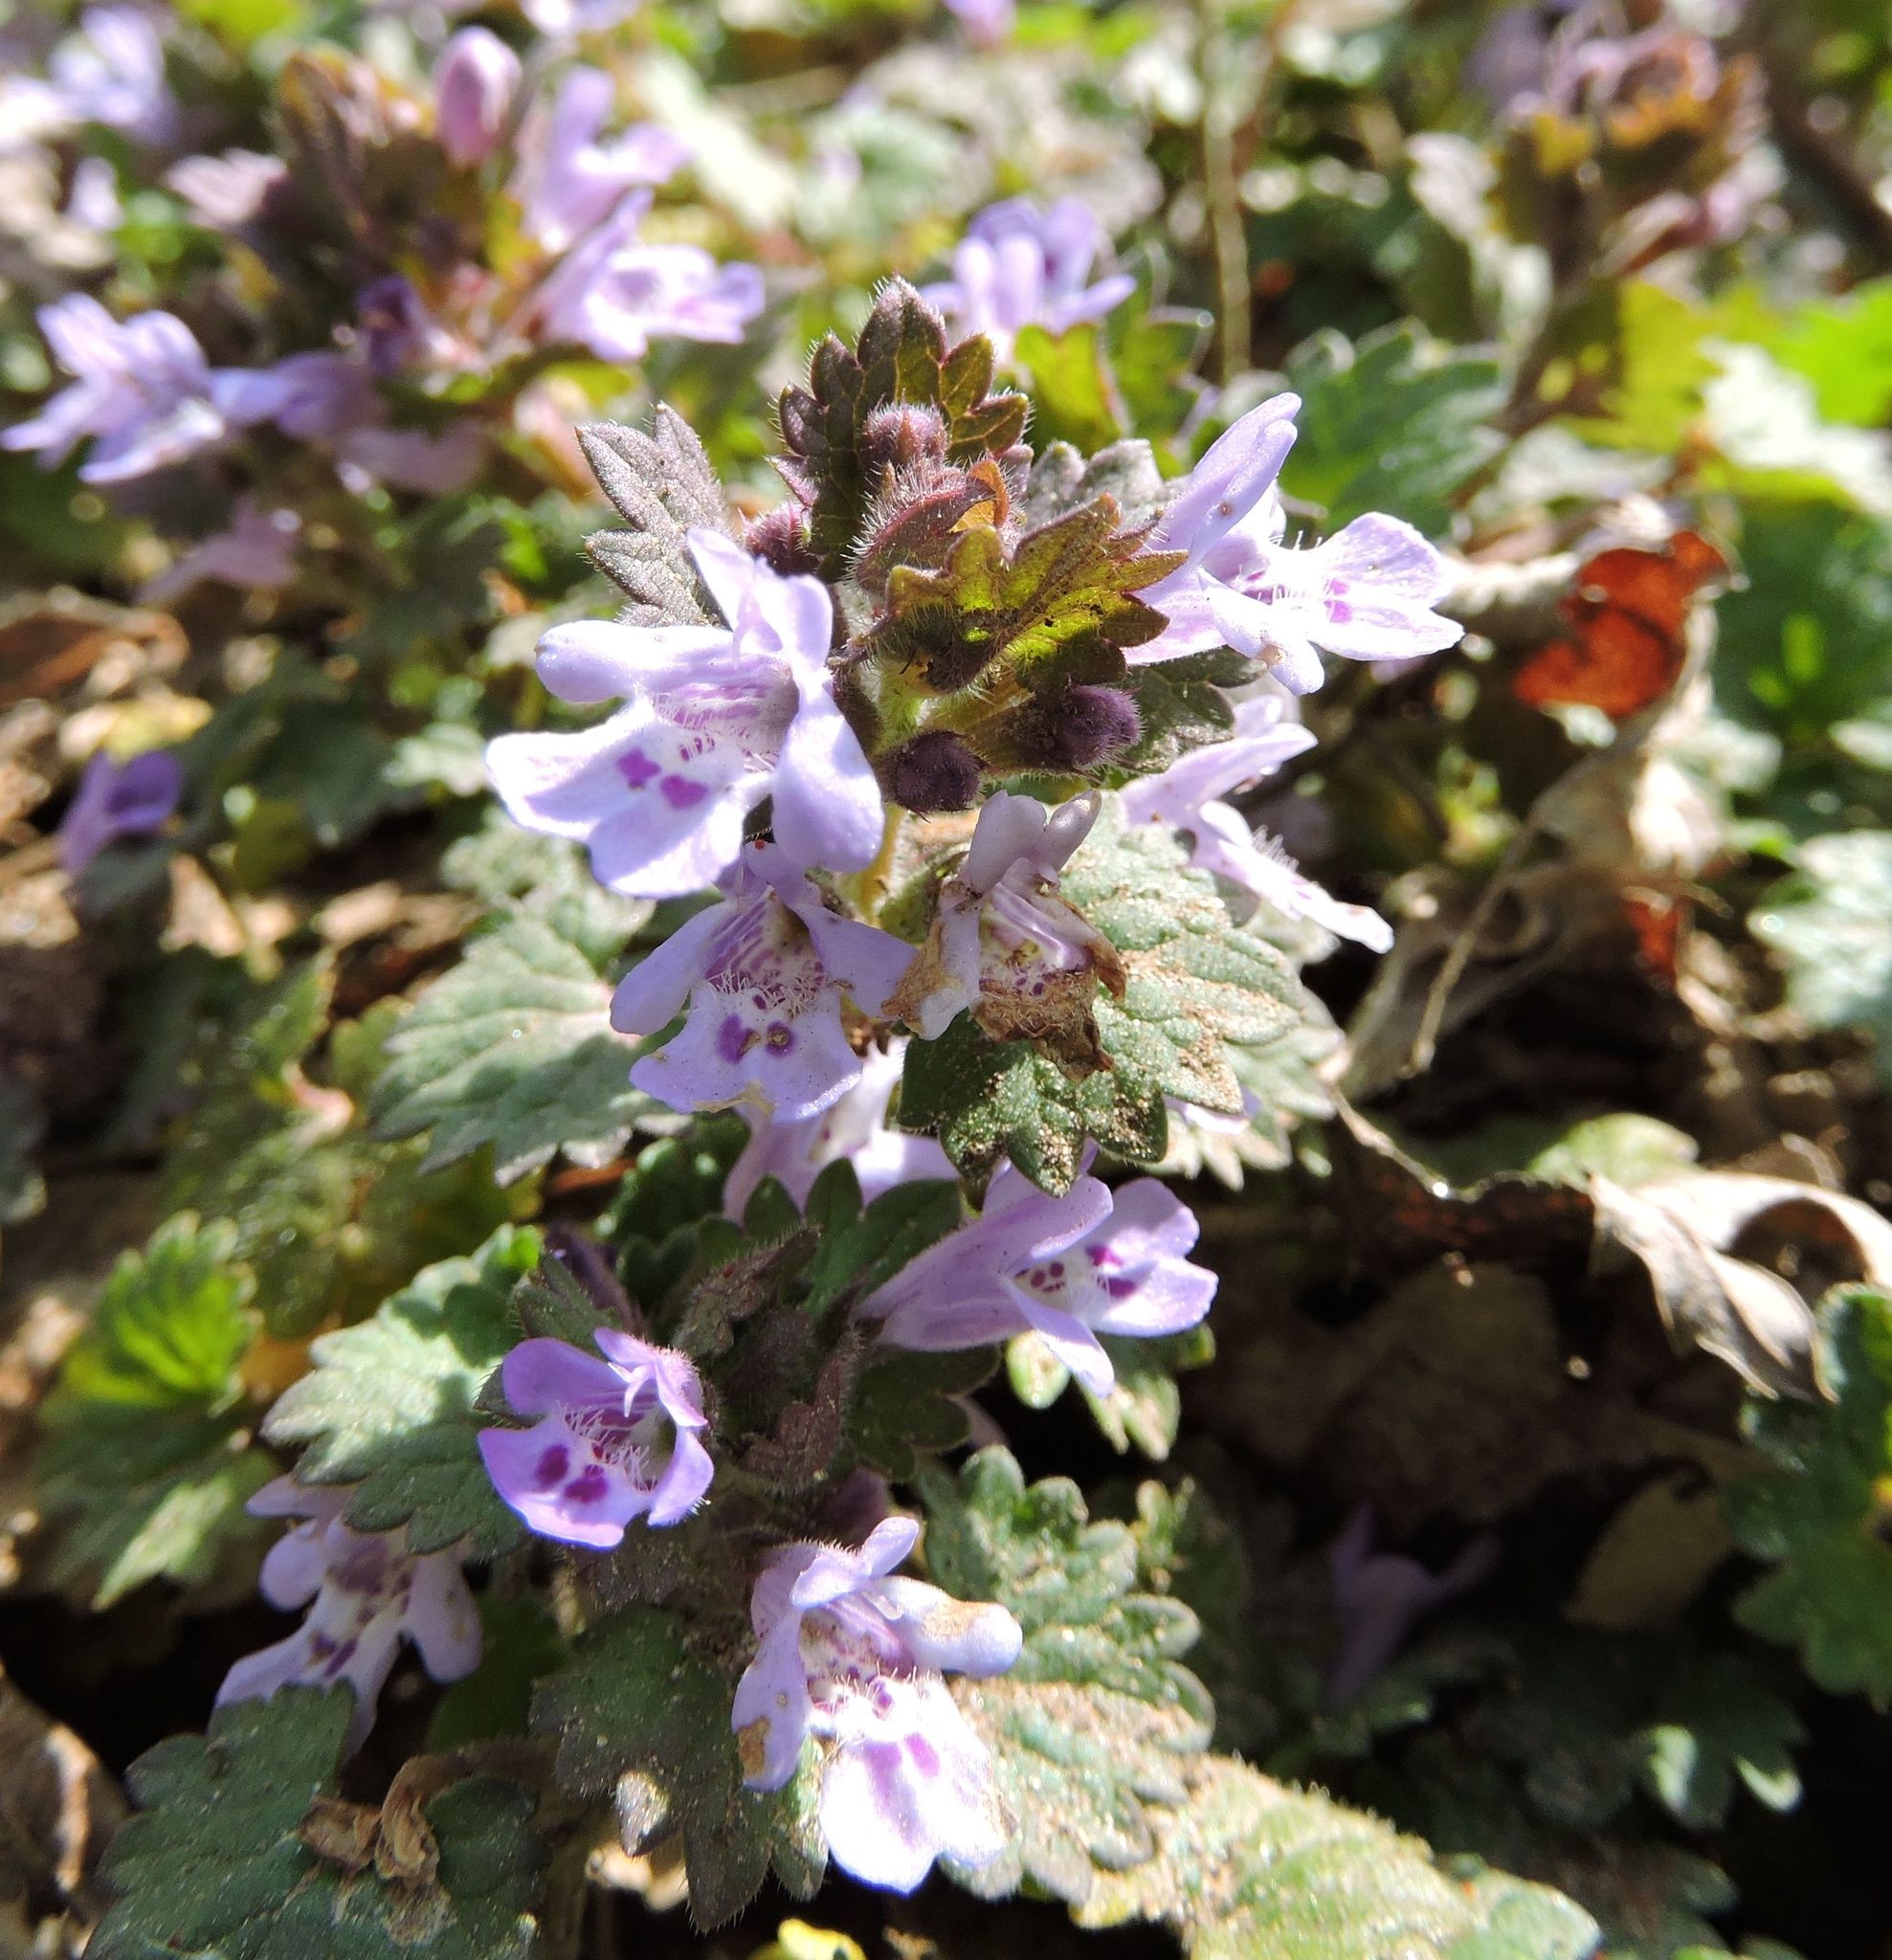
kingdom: Plantae
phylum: Tracheophyta
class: Magnoliopsida
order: Lamiales
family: Lamiaceae
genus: Glechoma
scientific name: Glechoma hederacea
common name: Ground ivy
